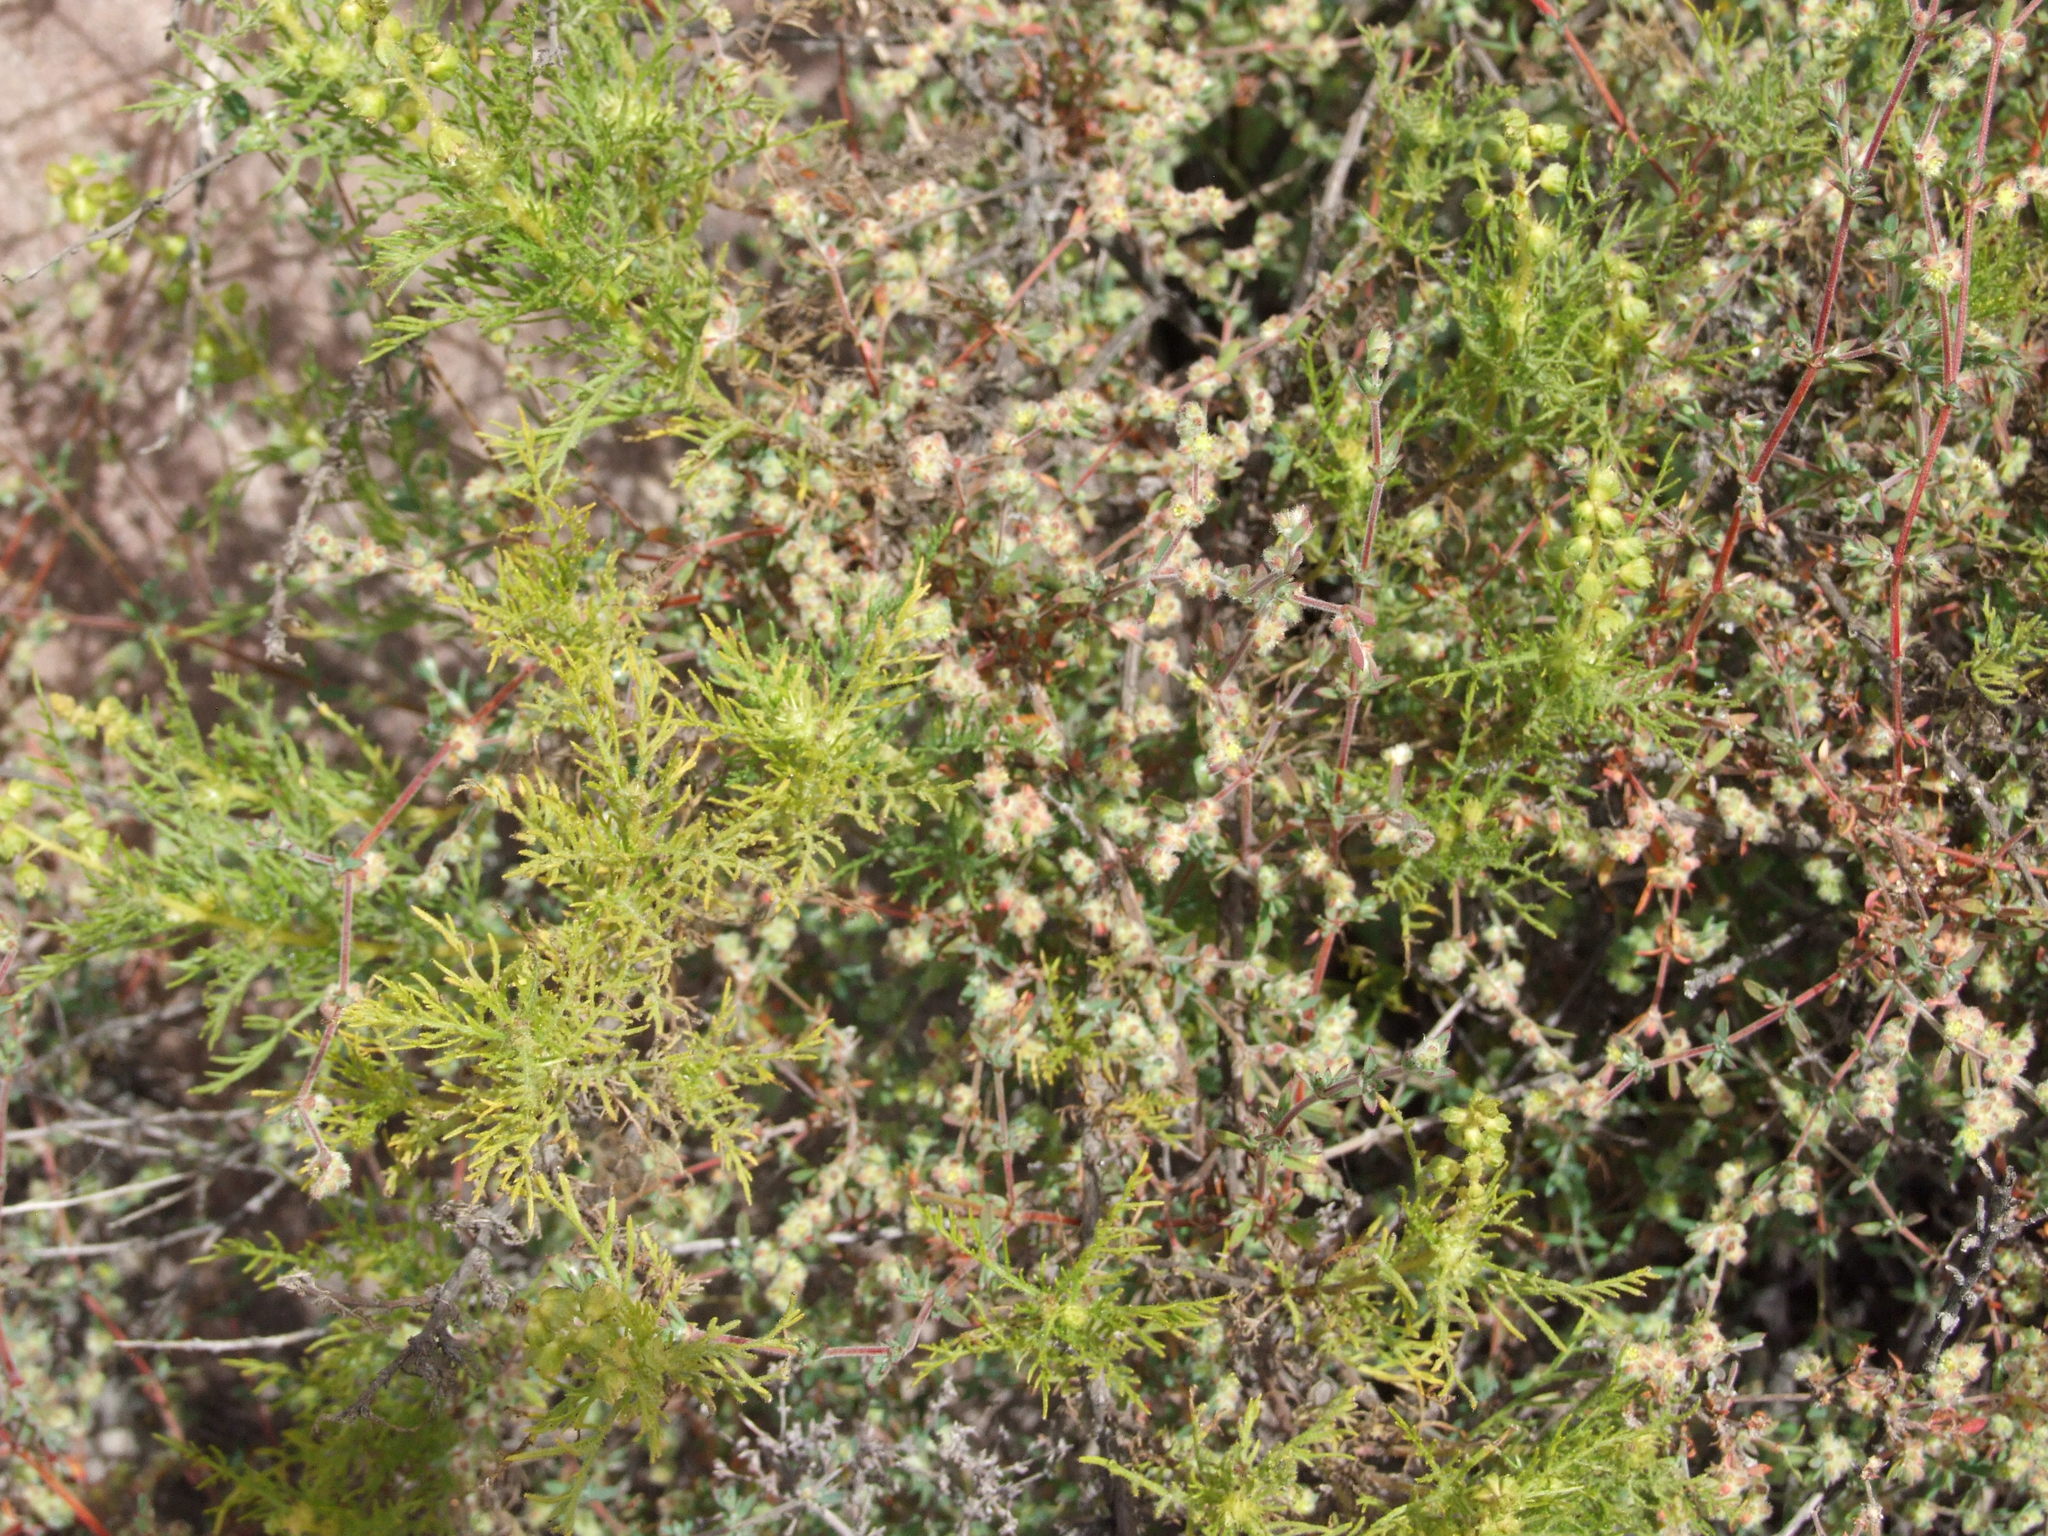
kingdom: Plantae
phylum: Tracheophyta
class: Magnoliopsida
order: Caryophyllales
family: Caryophyllaceae
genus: Paronychia
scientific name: Paronychia microphylla
